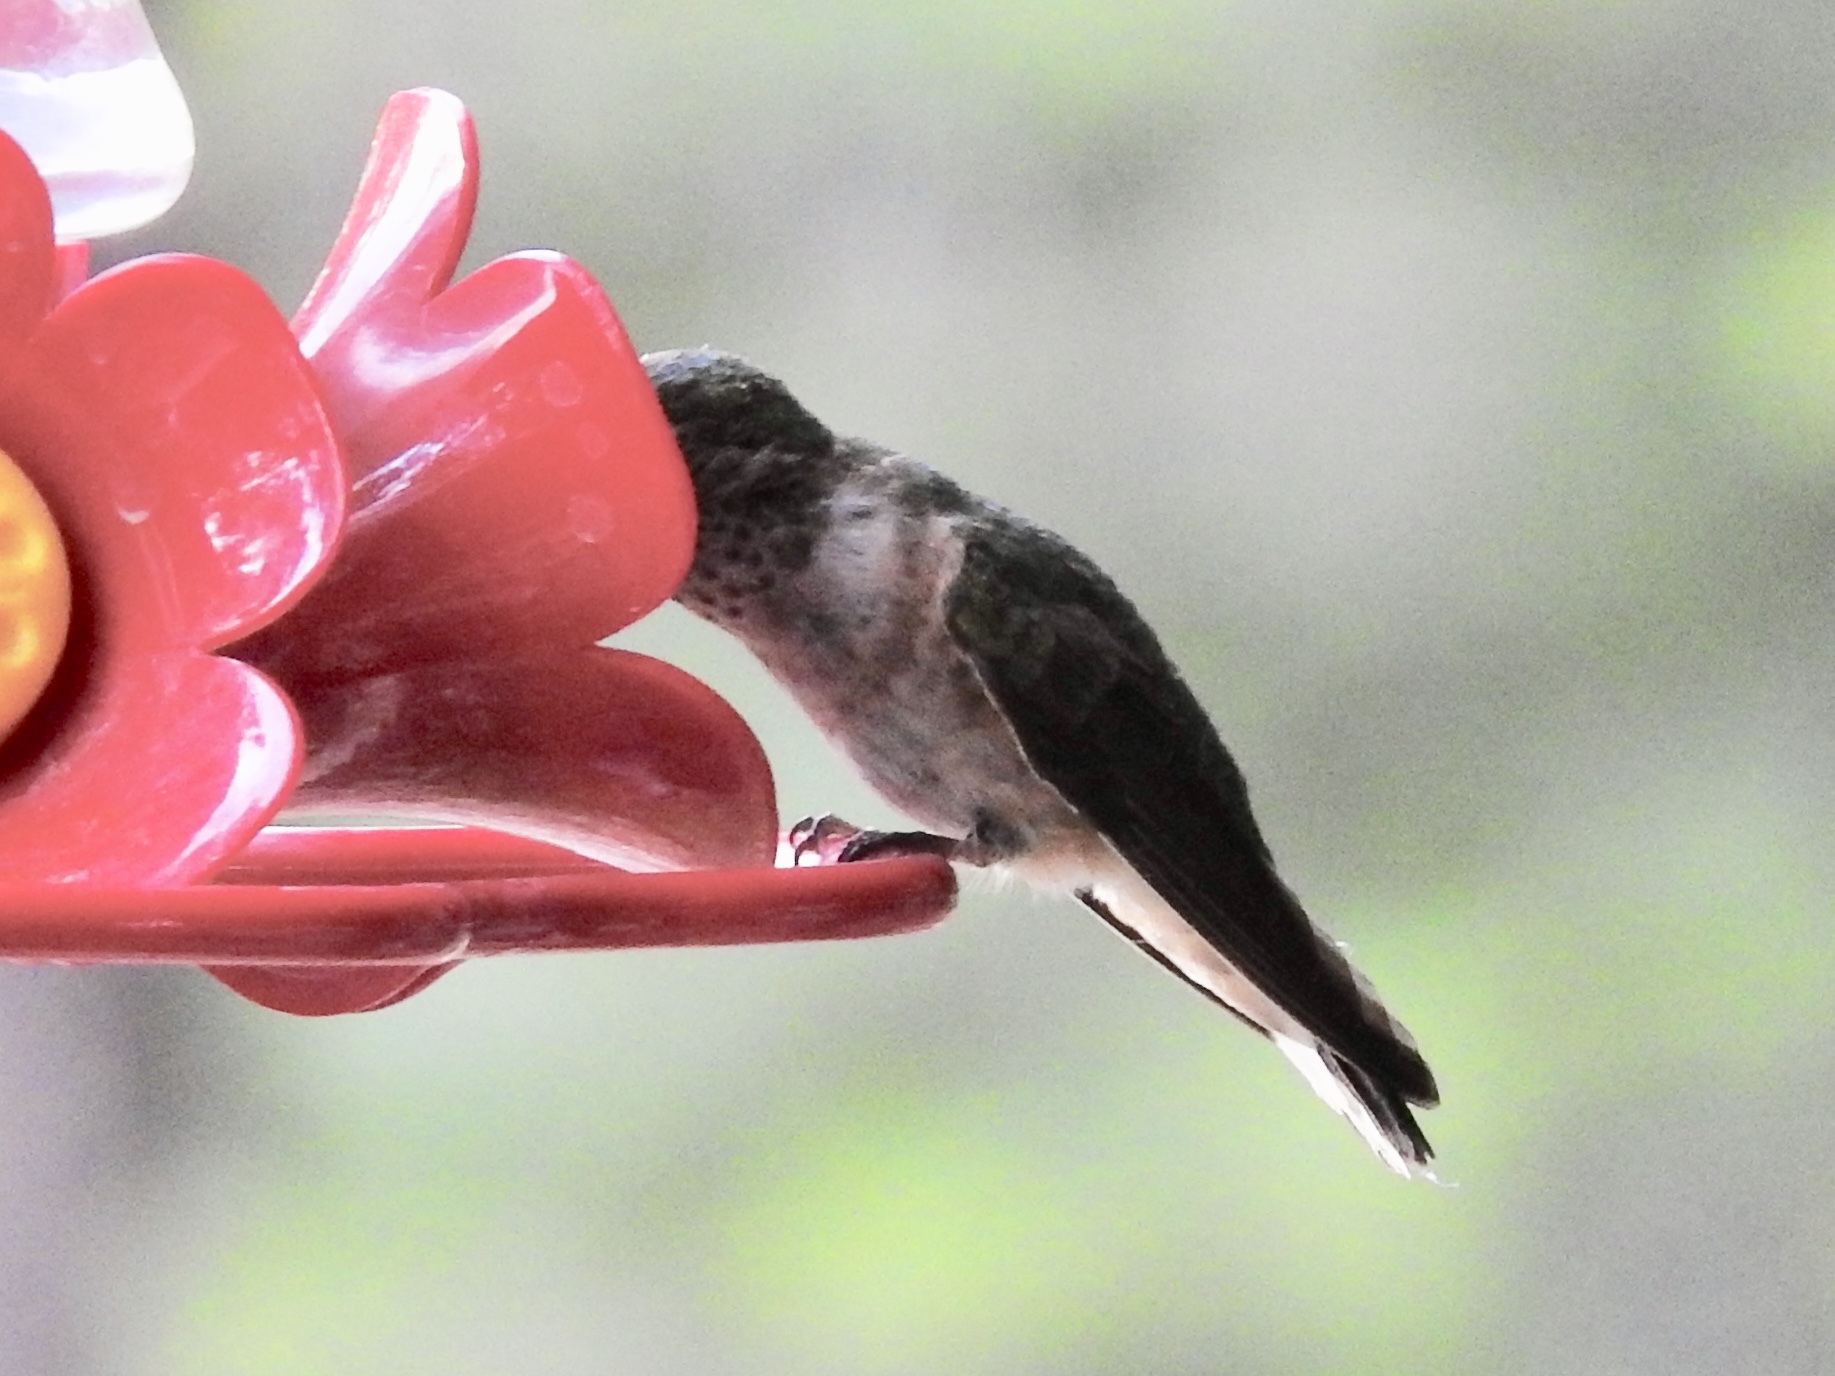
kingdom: Animalia
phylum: Chordata
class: Aves
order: Apodiformes
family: Trochilidae
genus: Selasphorus
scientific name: Selasphorus platycercus
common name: Broad-tailed hummingbird
